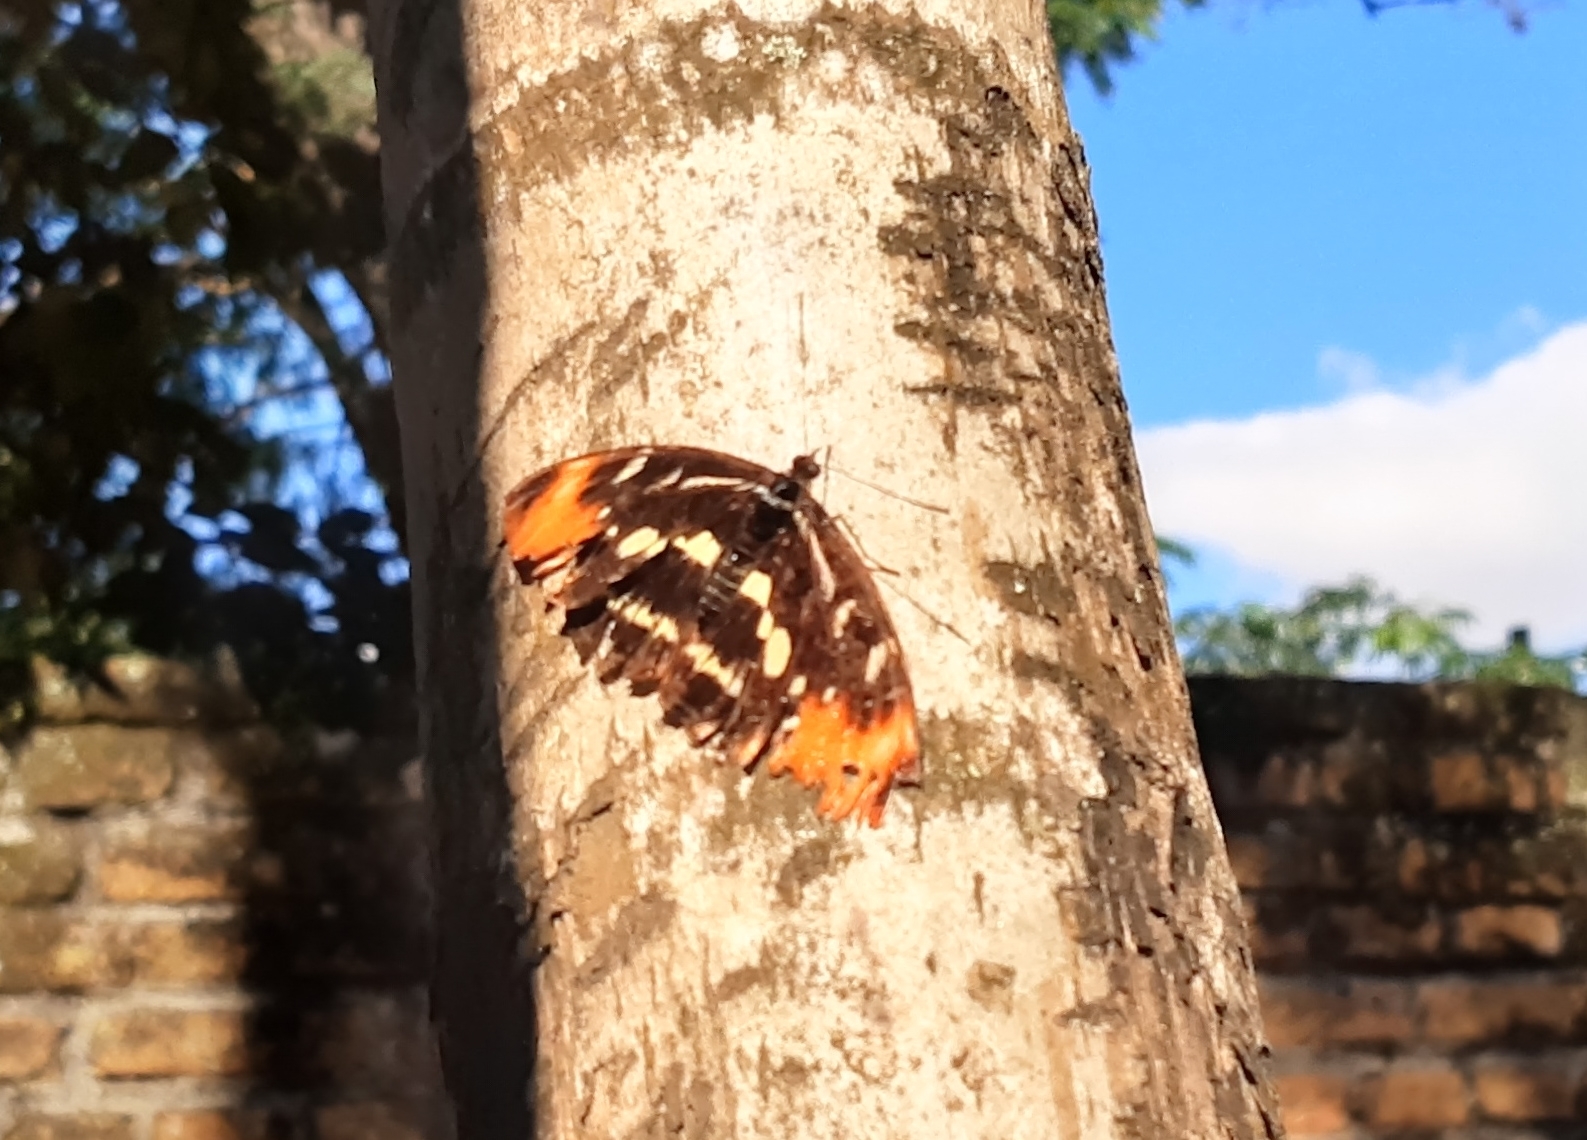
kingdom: Animalia
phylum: Arthropoda
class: Insecta
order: Lepidoptera
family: Nymphalidae
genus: Catonephele
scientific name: Catonephele sabrina
